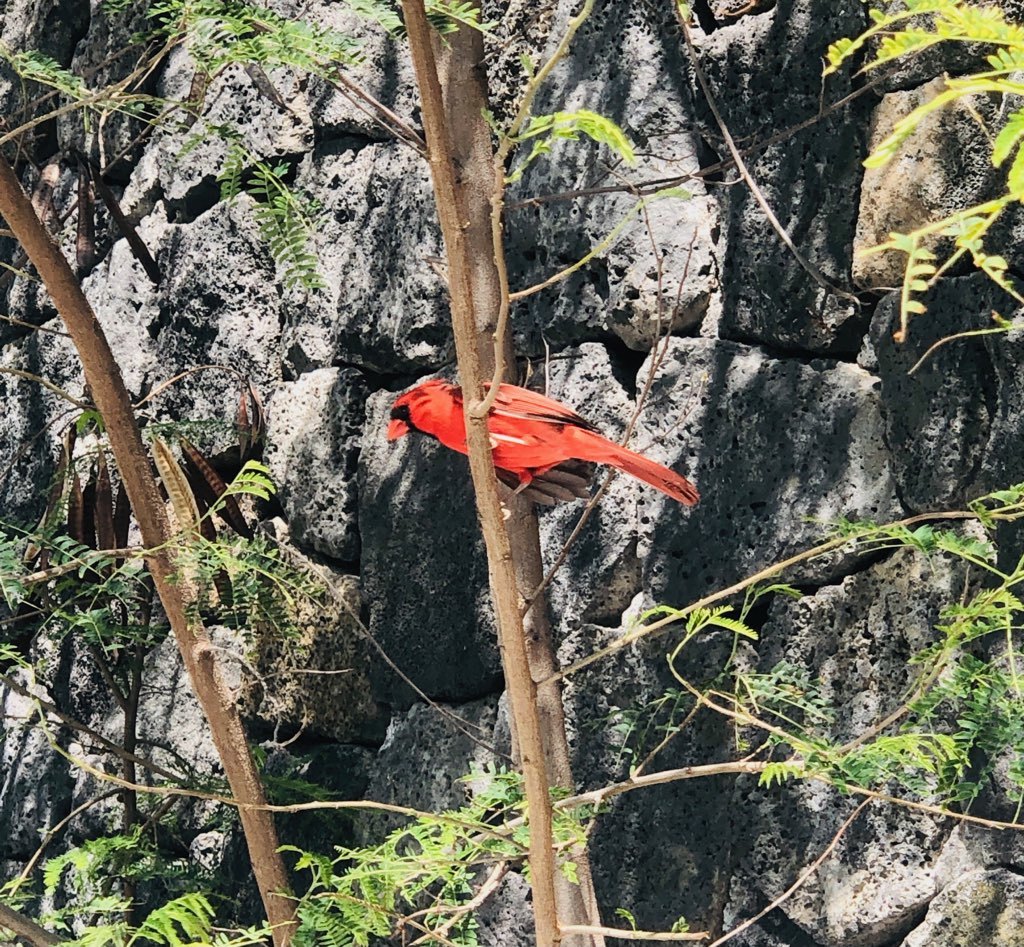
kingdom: Animalia
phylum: Chordata
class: Aves
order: Passeriformes
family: Cardinalidae
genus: Cardinalis
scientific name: Cardinalis cardinalis
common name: Northern cardinal
